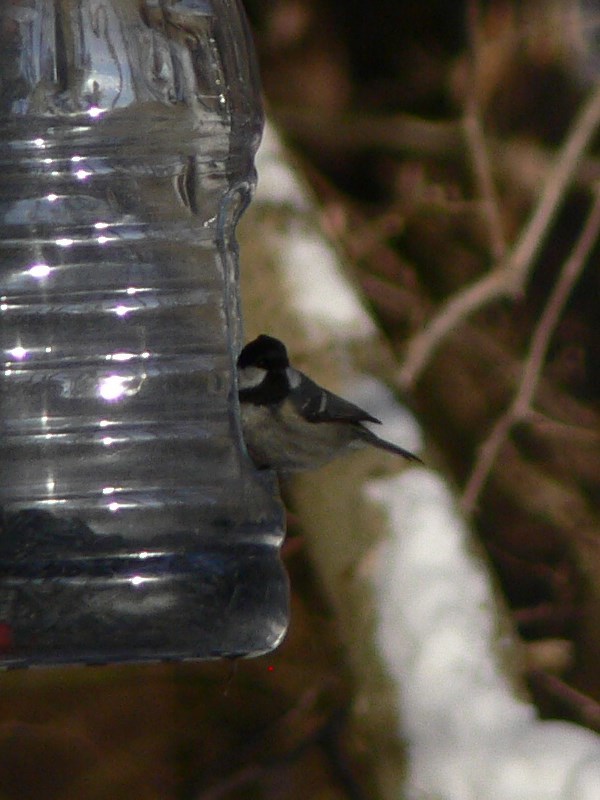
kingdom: Animalia
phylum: Chordata
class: Aves
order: Passeriformes
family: Paridae
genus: Periparus
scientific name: Periparus ater
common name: Coal tit
